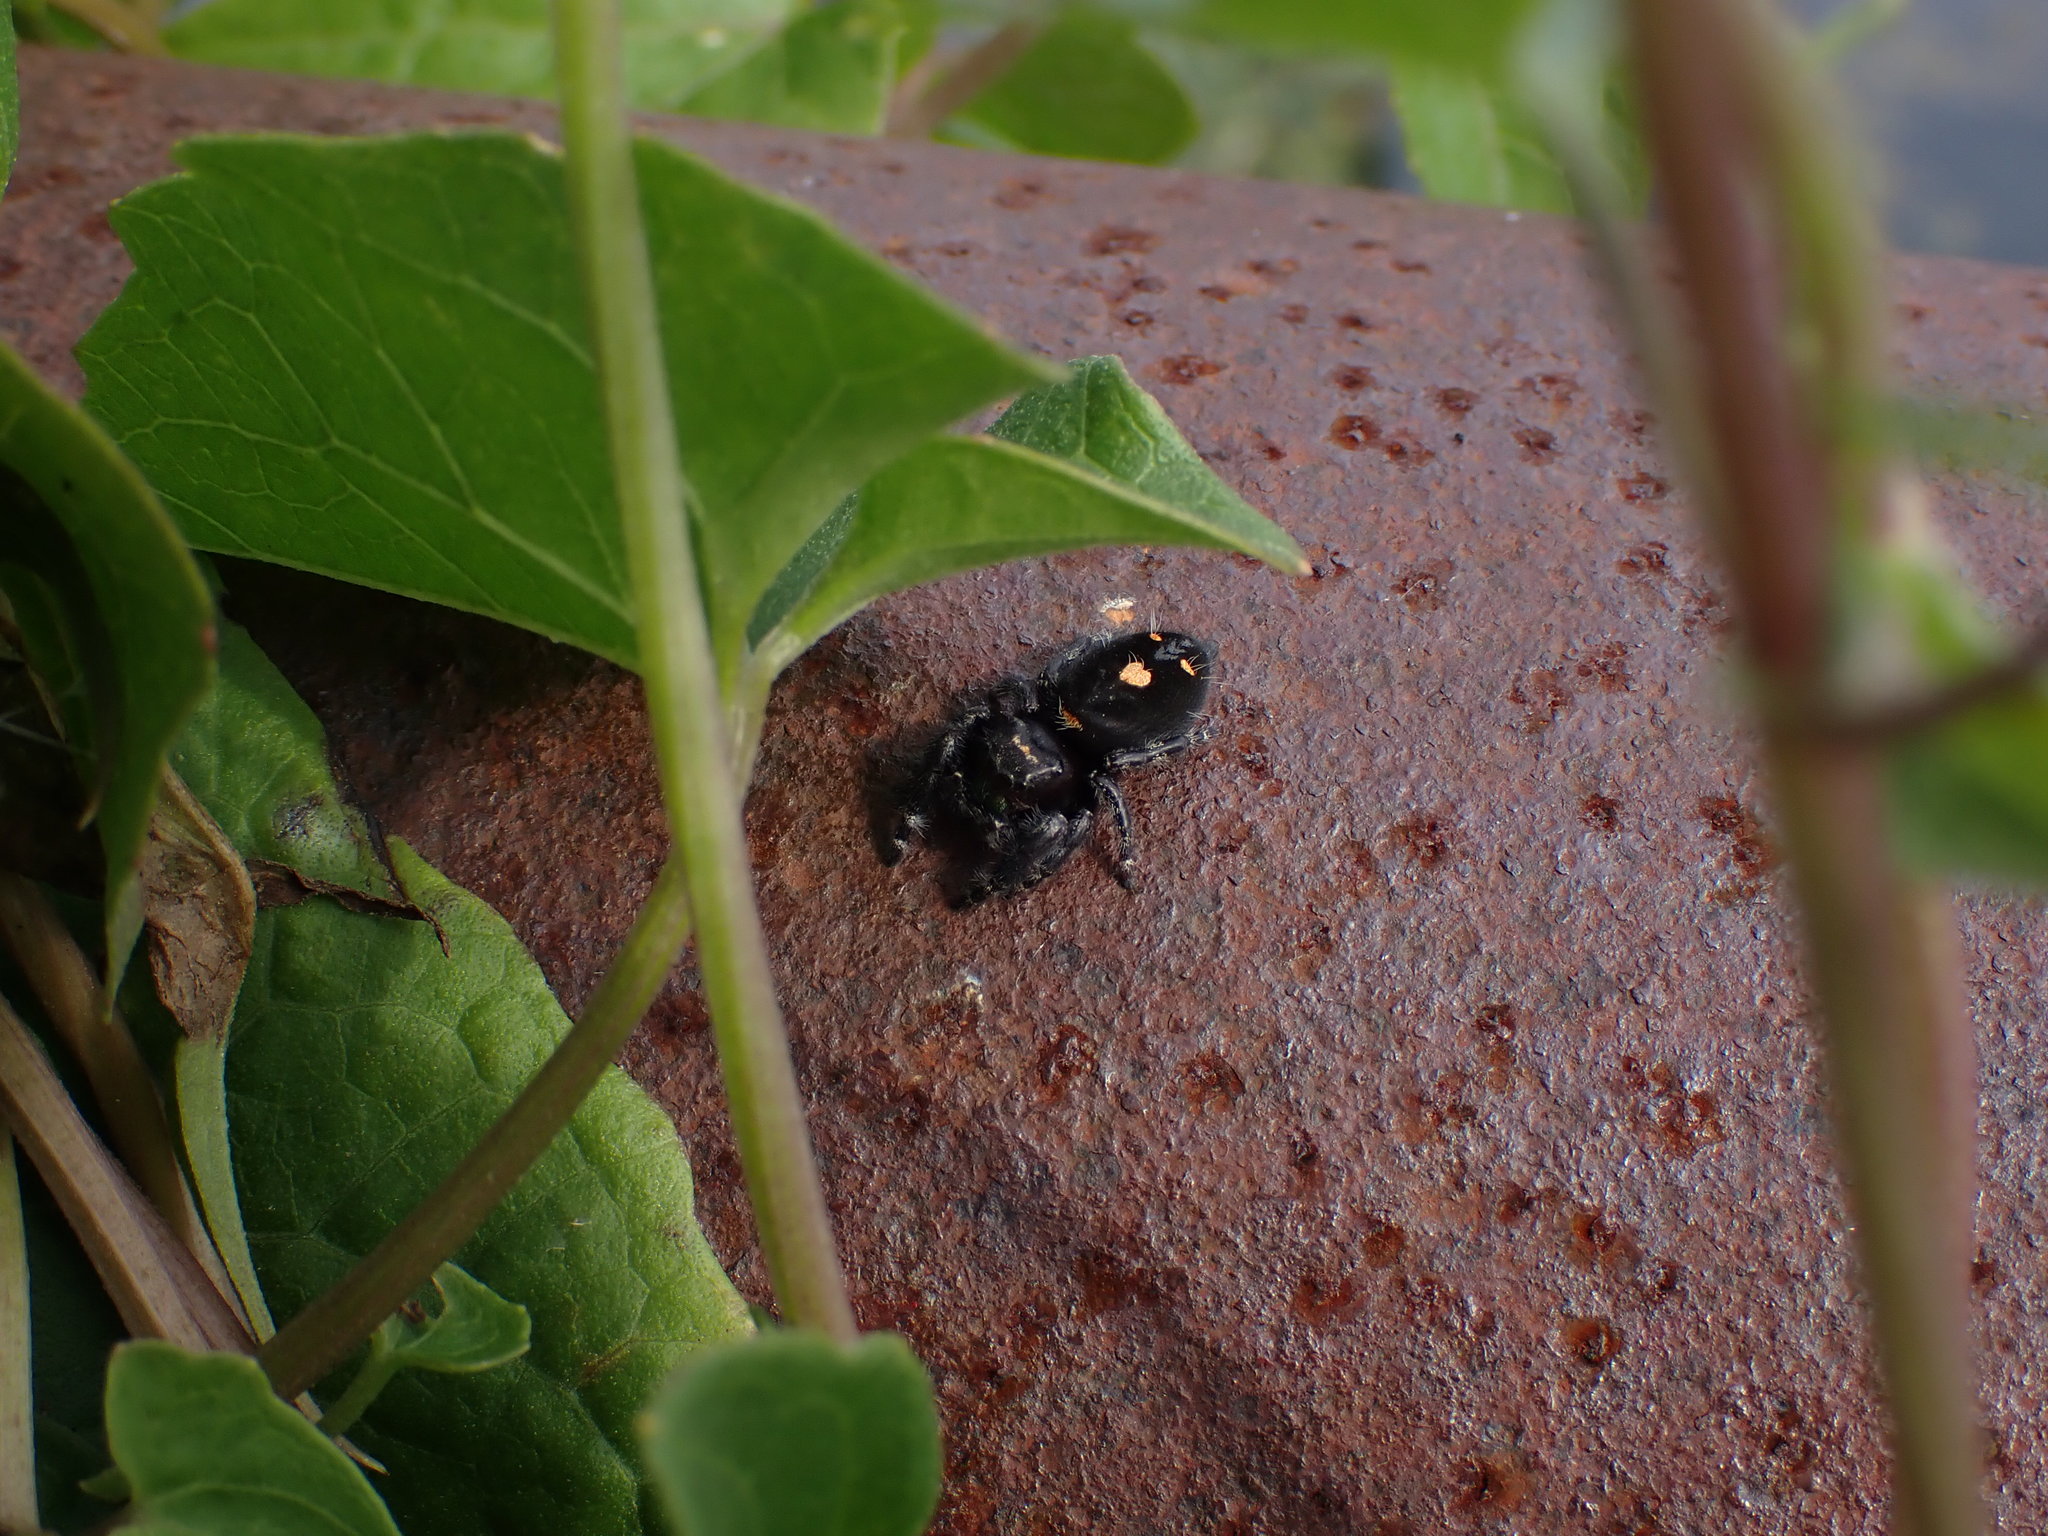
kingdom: Animalia
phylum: Arthropoda
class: Arachnida
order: Araneae
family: Salticidae
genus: Phidippus
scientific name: Phidippus audax
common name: Bold jumper
